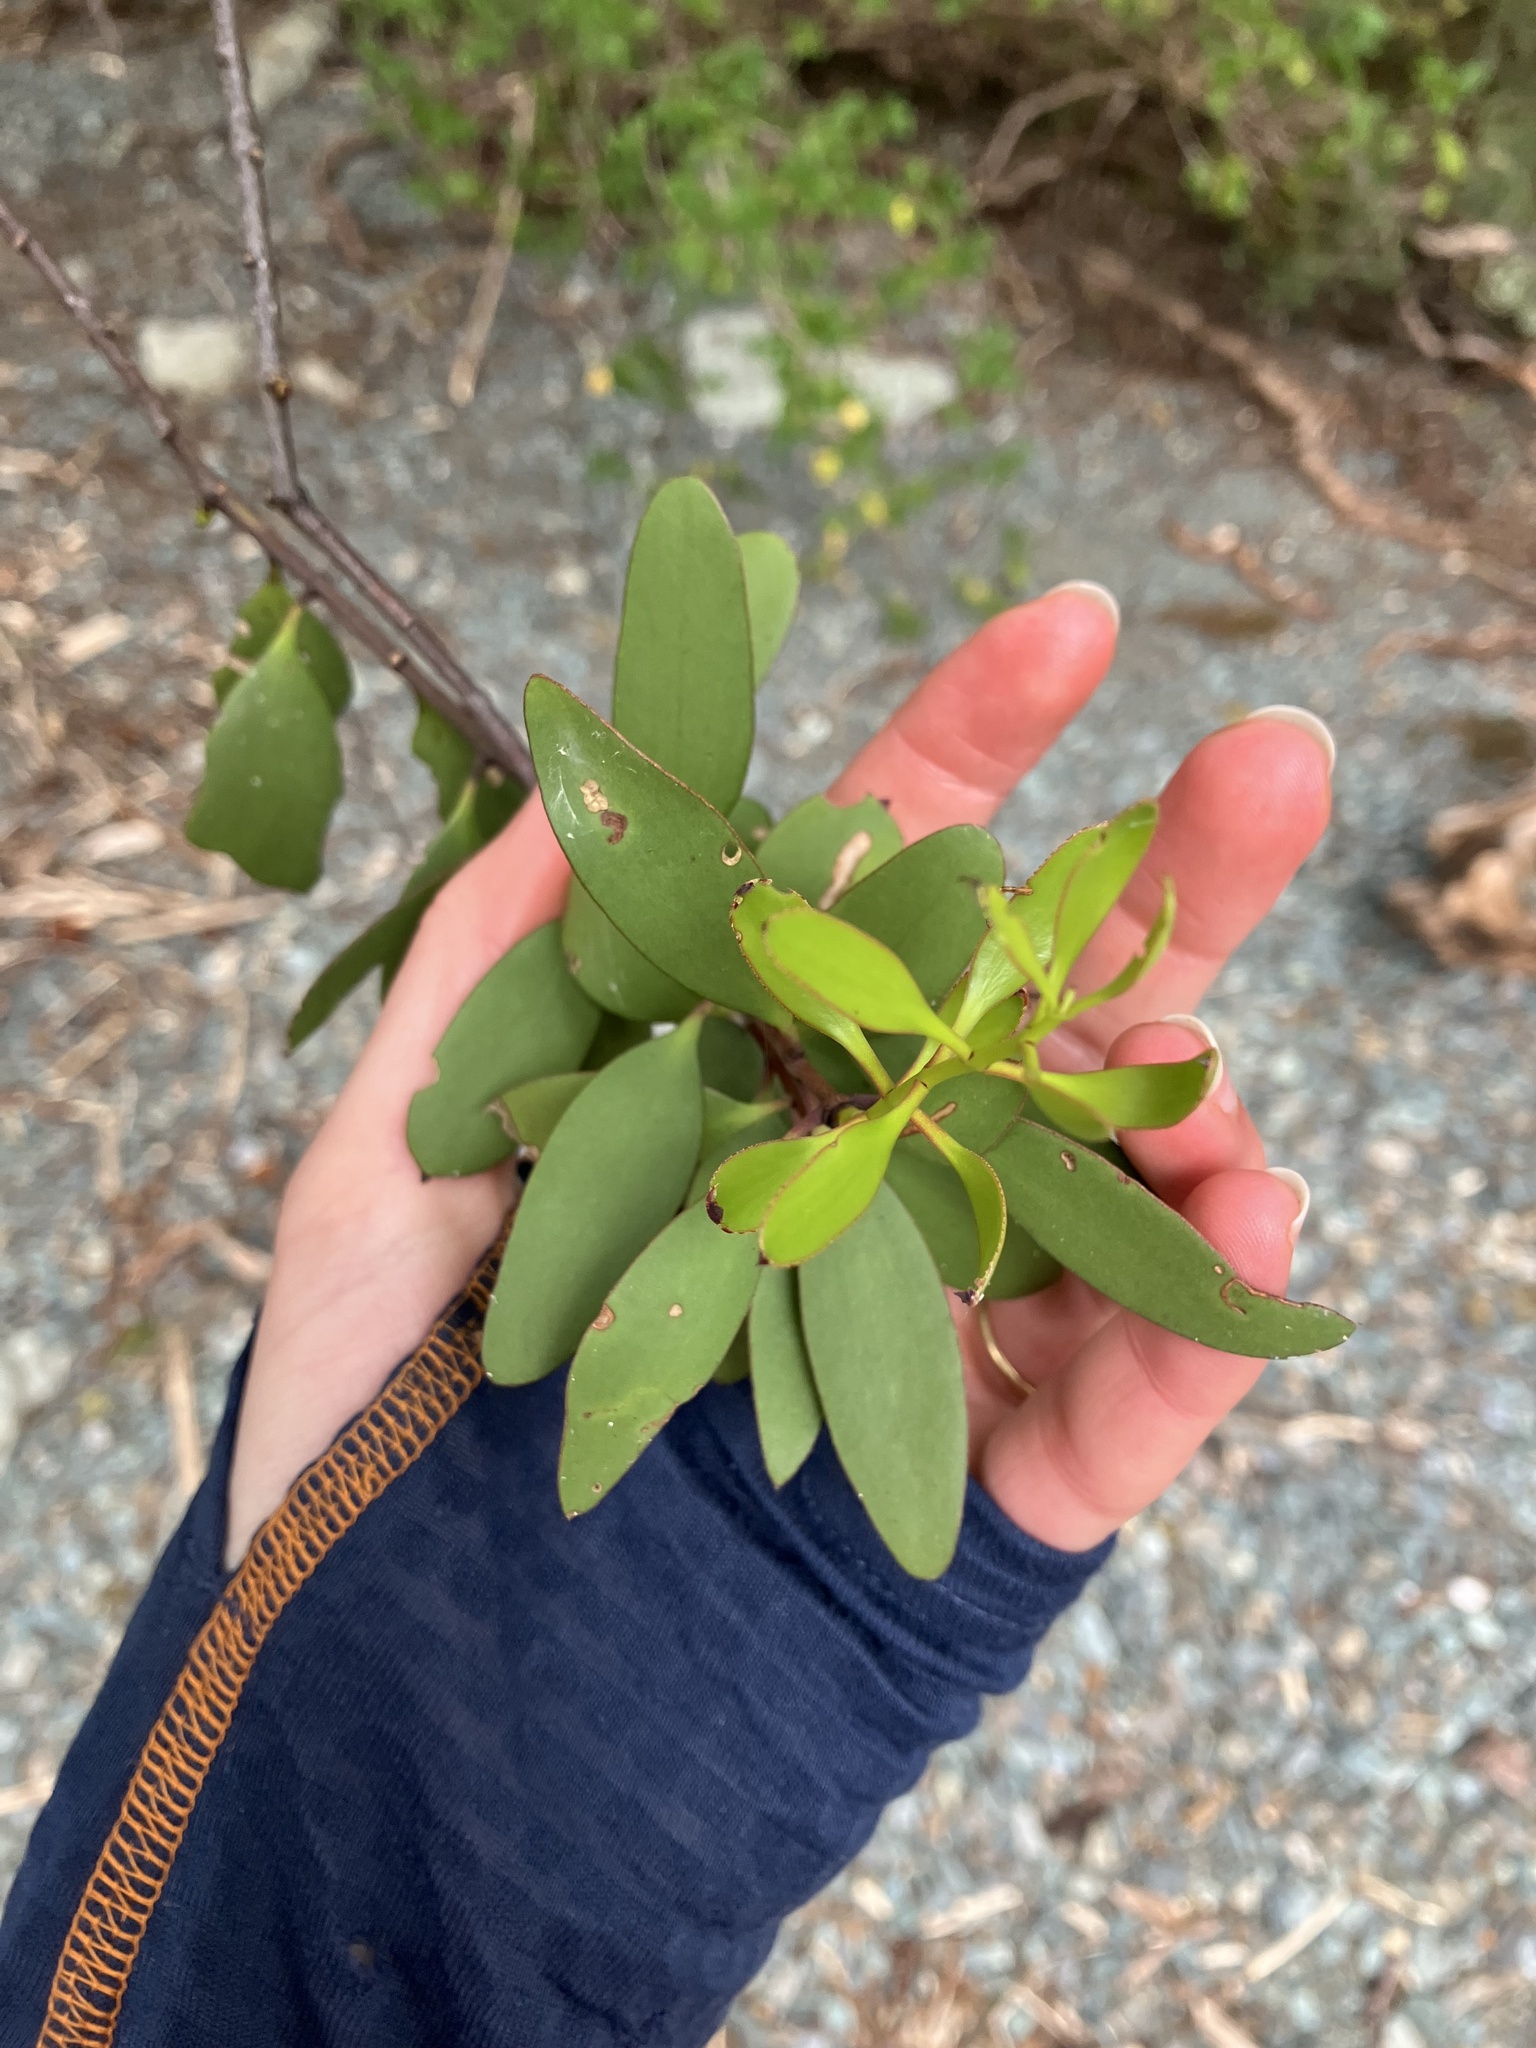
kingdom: Plantae
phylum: Tracheophyta
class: Magnoliopsida
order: Santalales
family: Loranthaceae
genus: Alepis
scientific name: Alepis flavida
